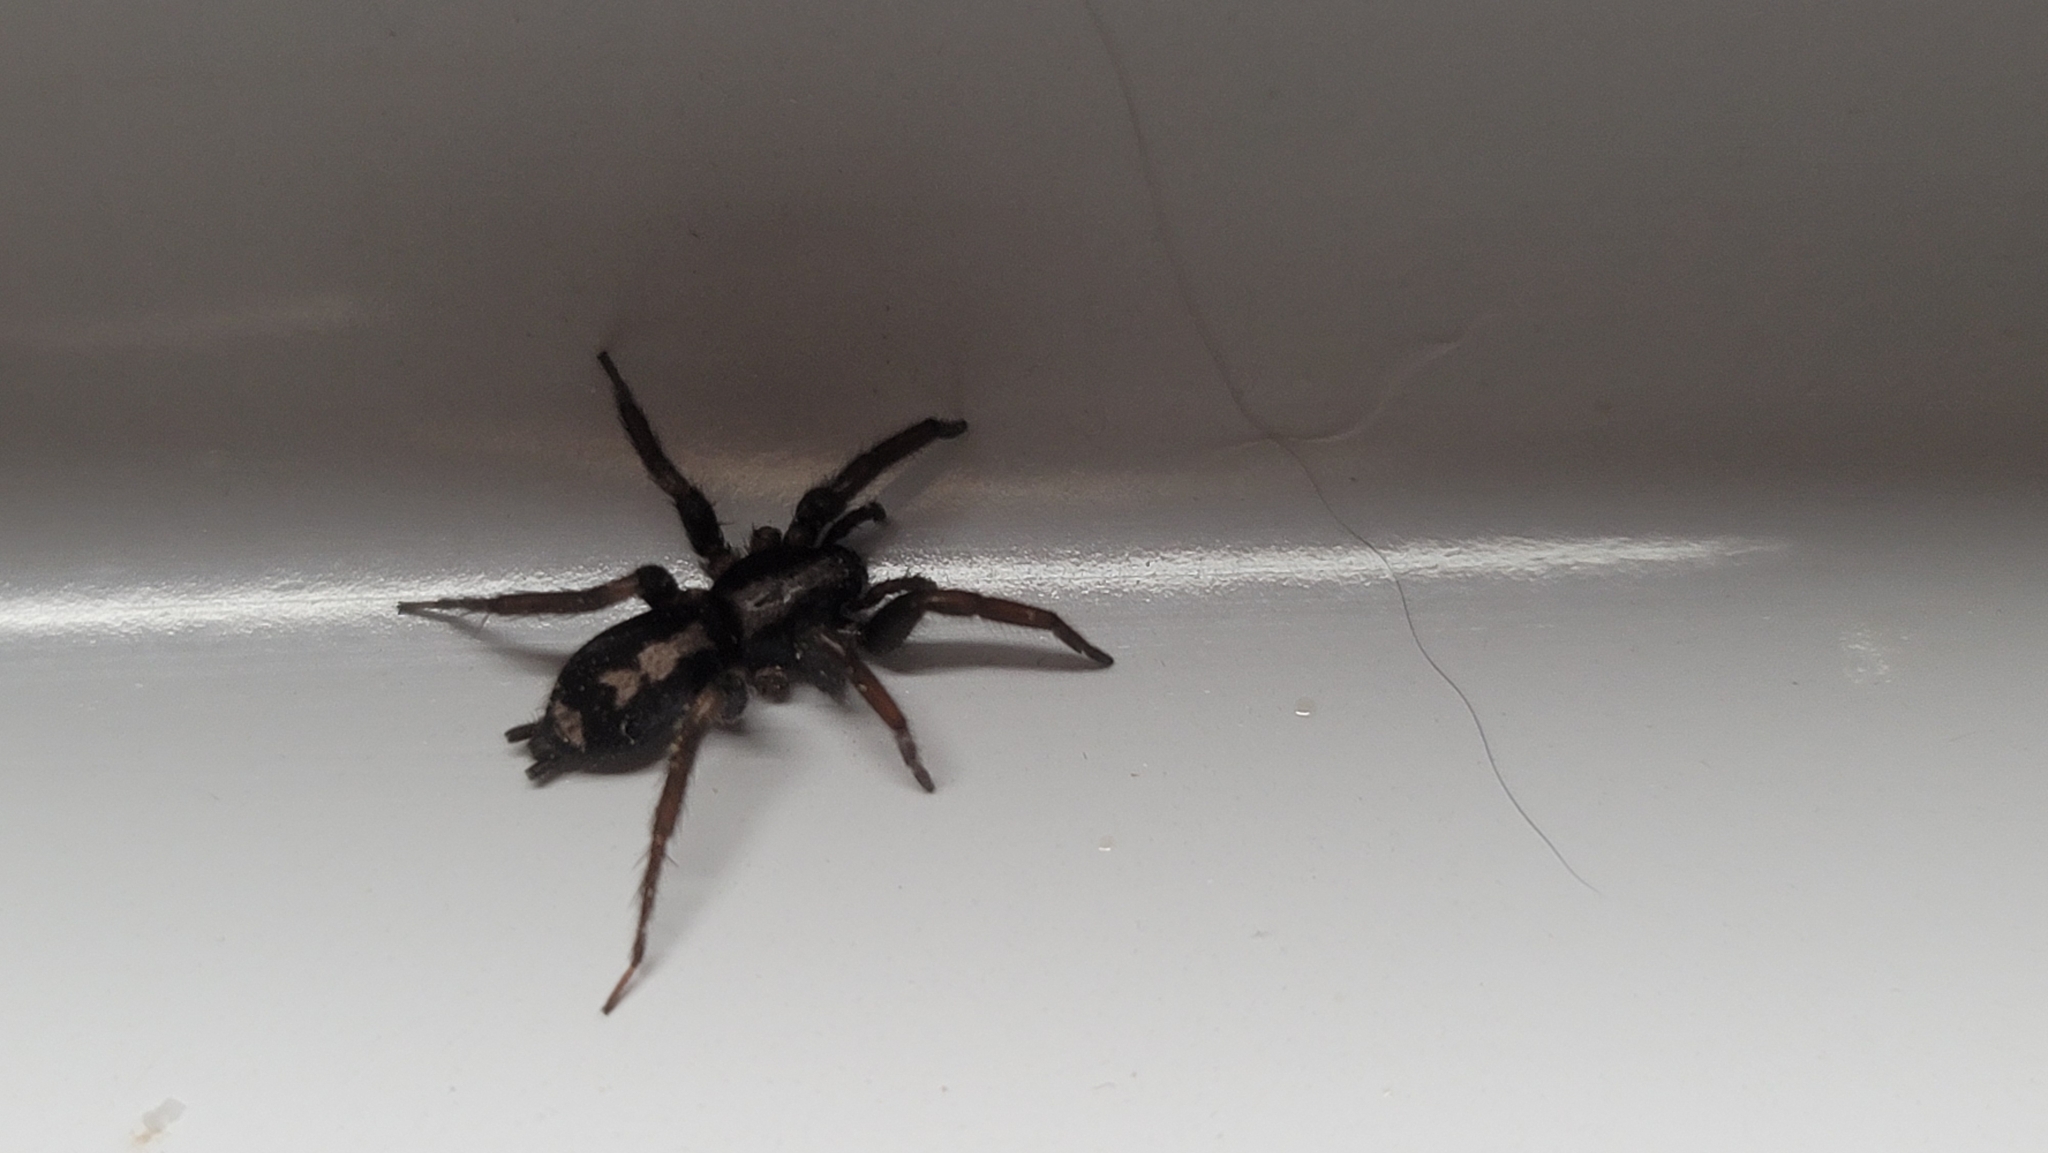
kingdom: Animalia
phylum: Arthropoda
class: Arachnida
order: Araneae
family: Gnaphosidae
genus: Herpyllus
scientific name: Herpyllus ecclesiasticus
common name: Eastern parson spider
